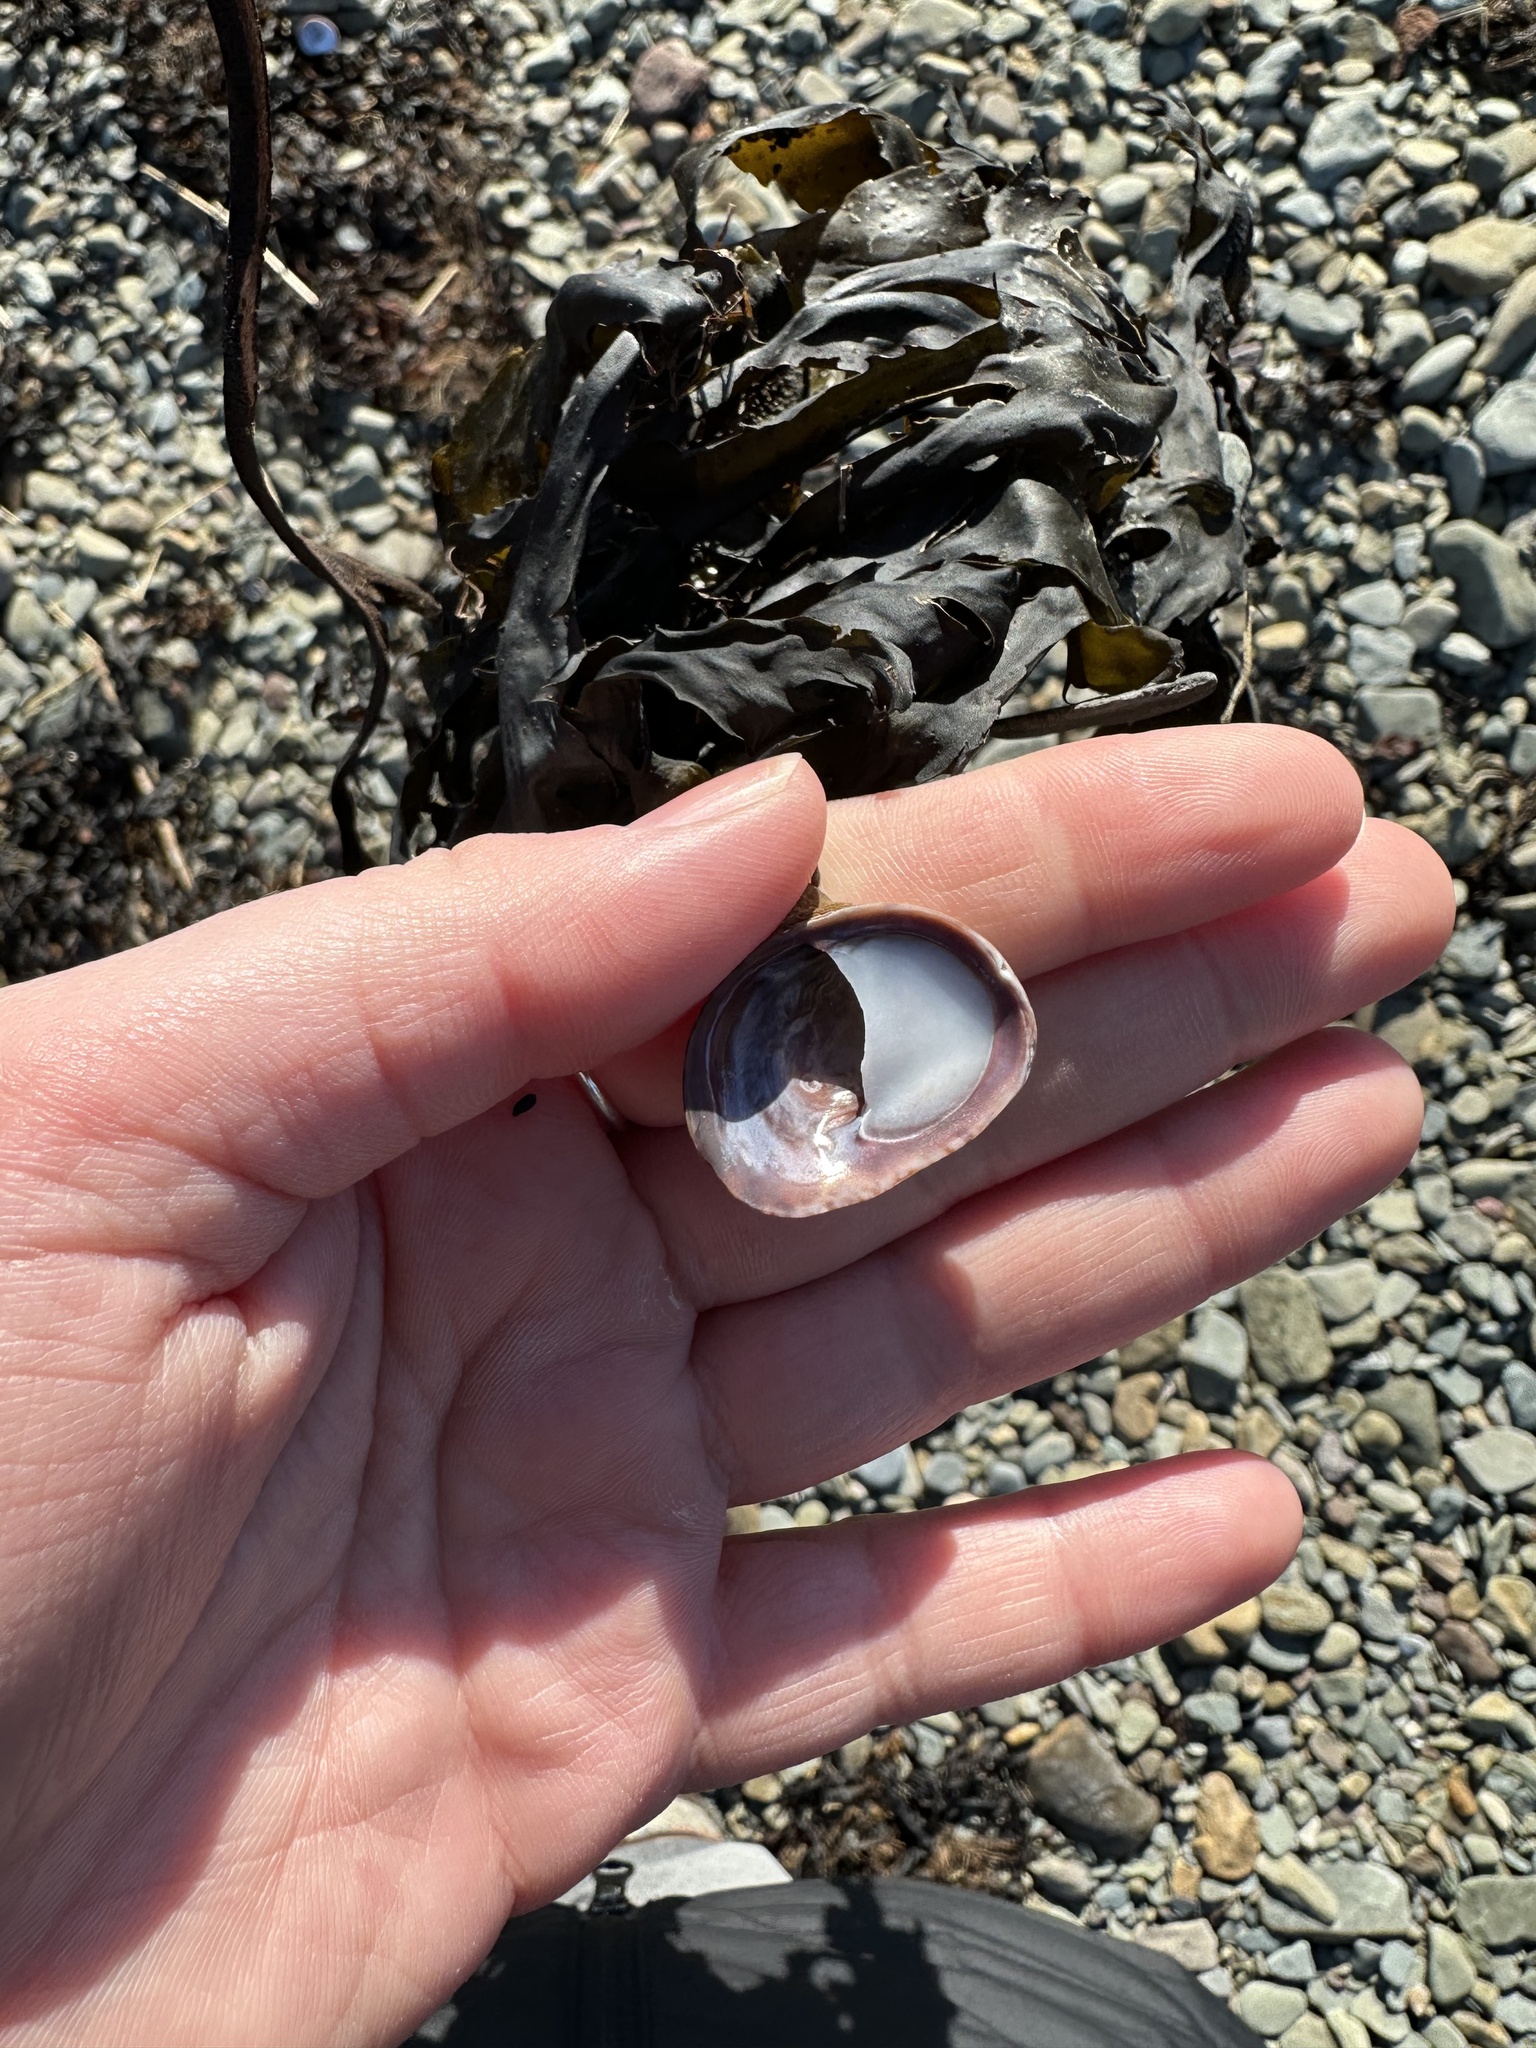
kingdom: Animalia
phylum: Mollusca
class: Gastropoda
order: Littorinimorpha
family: Calyptraeidae
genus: Crepidula
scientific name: Crepidula fornicata
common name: Slipper limpet
